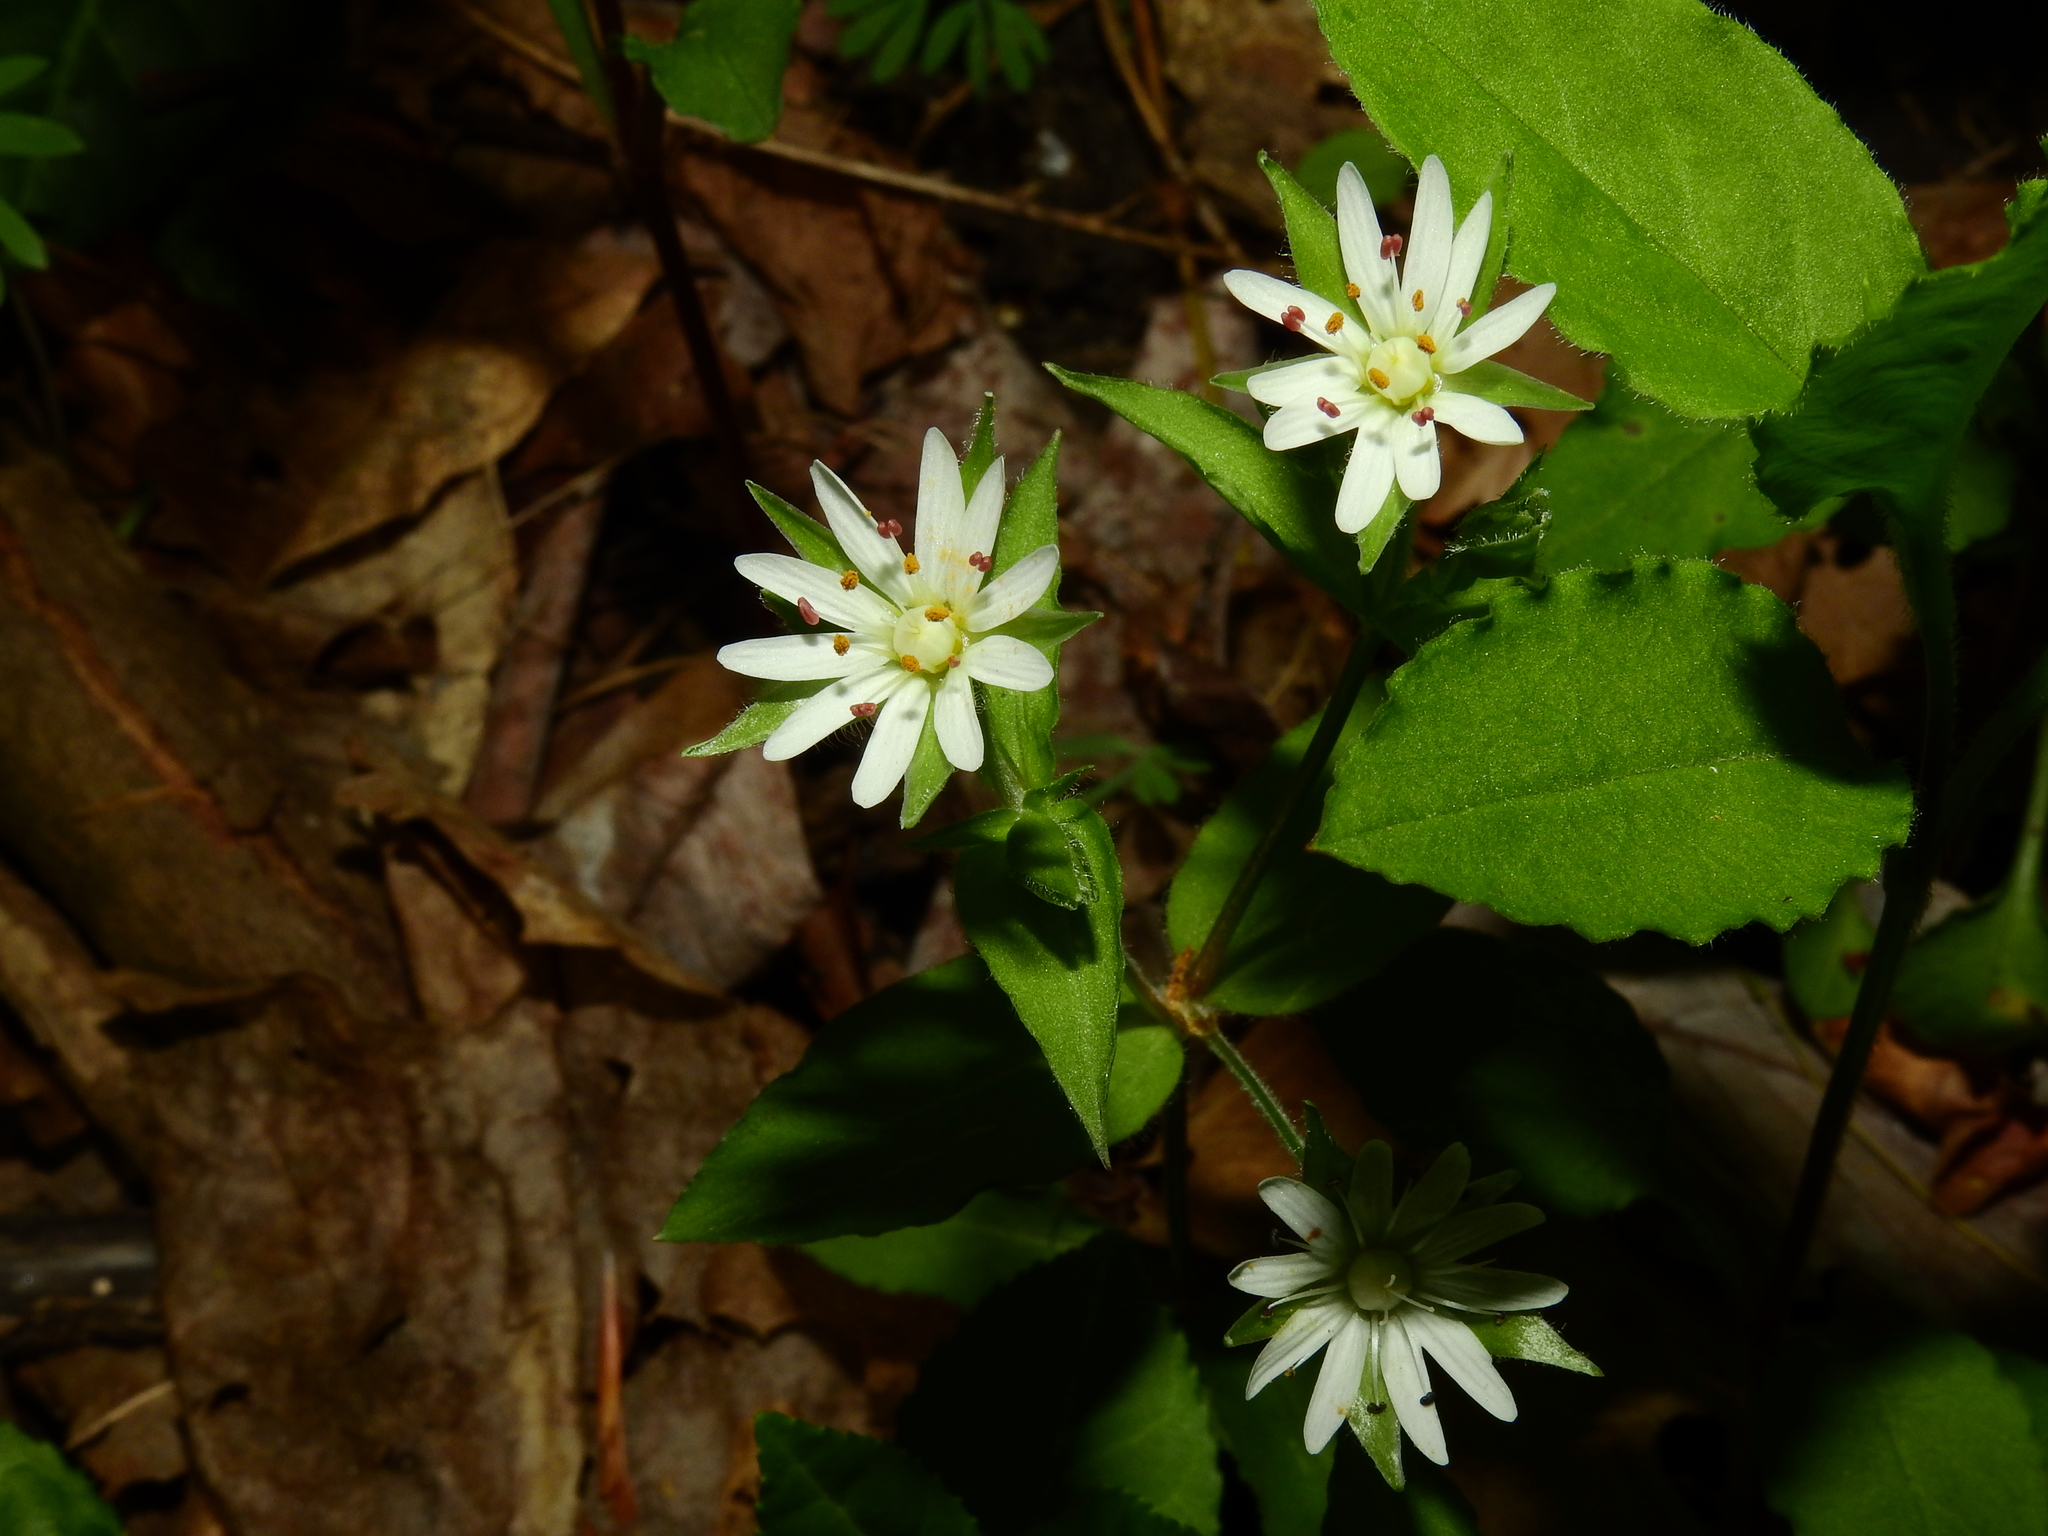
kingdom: Plantae
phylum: Tracheophyta
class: Magnoliopsida
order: Caryophyllales
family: Caryophyllaceae
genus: Stellaria
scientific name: Stellaria pubera
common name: Star chickweed
